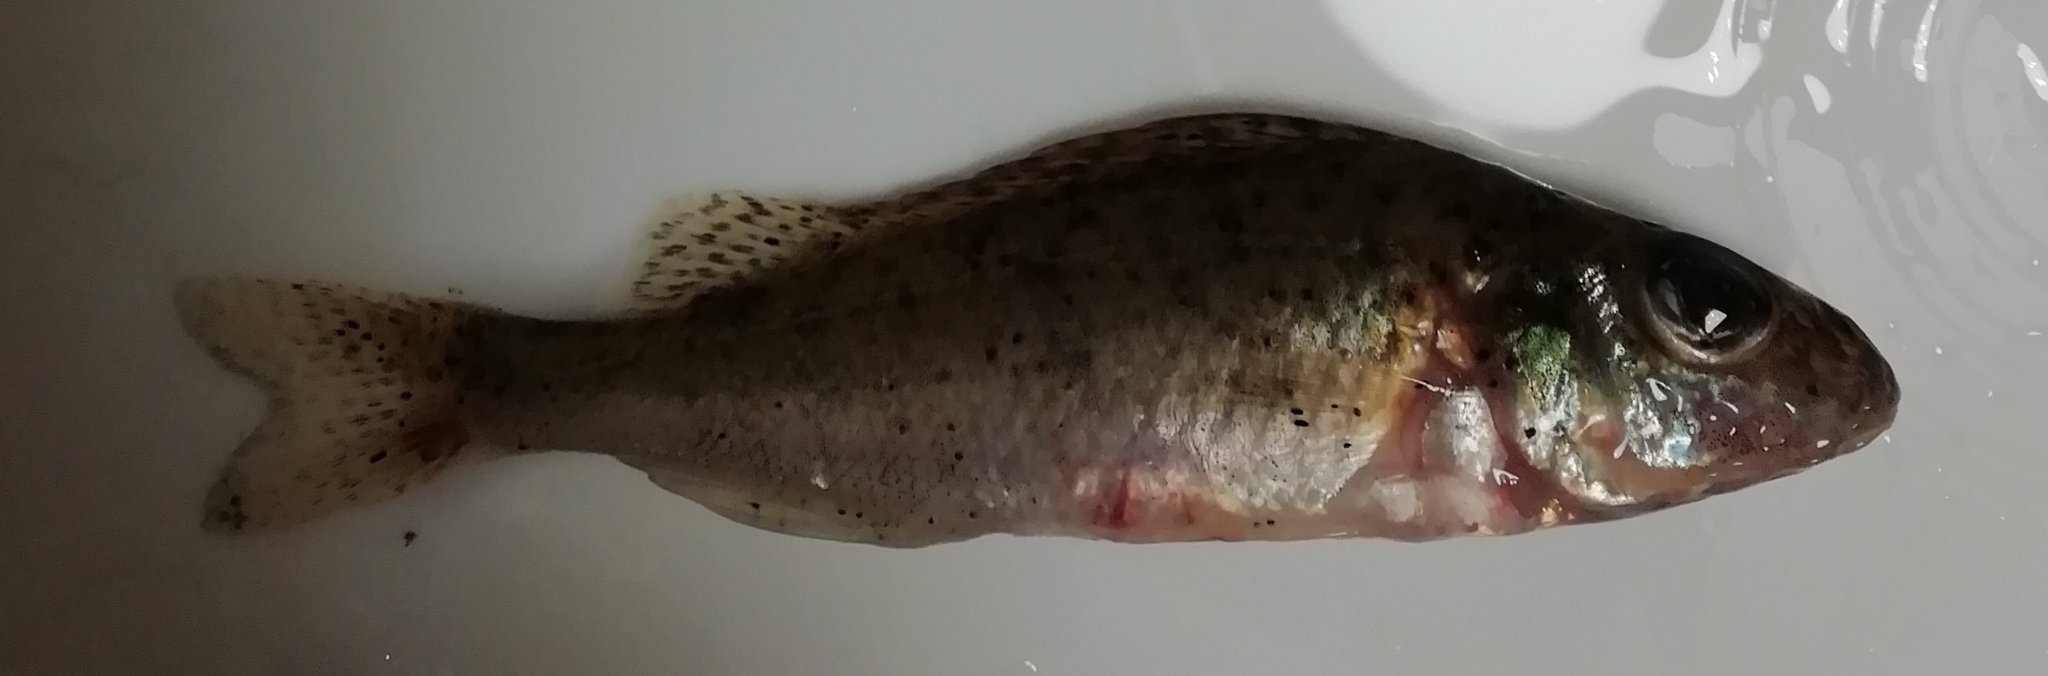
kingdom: Animalia
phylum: Chordata
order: Perciformes
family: Percidae
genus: Gymnocephalus
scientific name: Gymnocephalus cernua
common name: Ruffe
